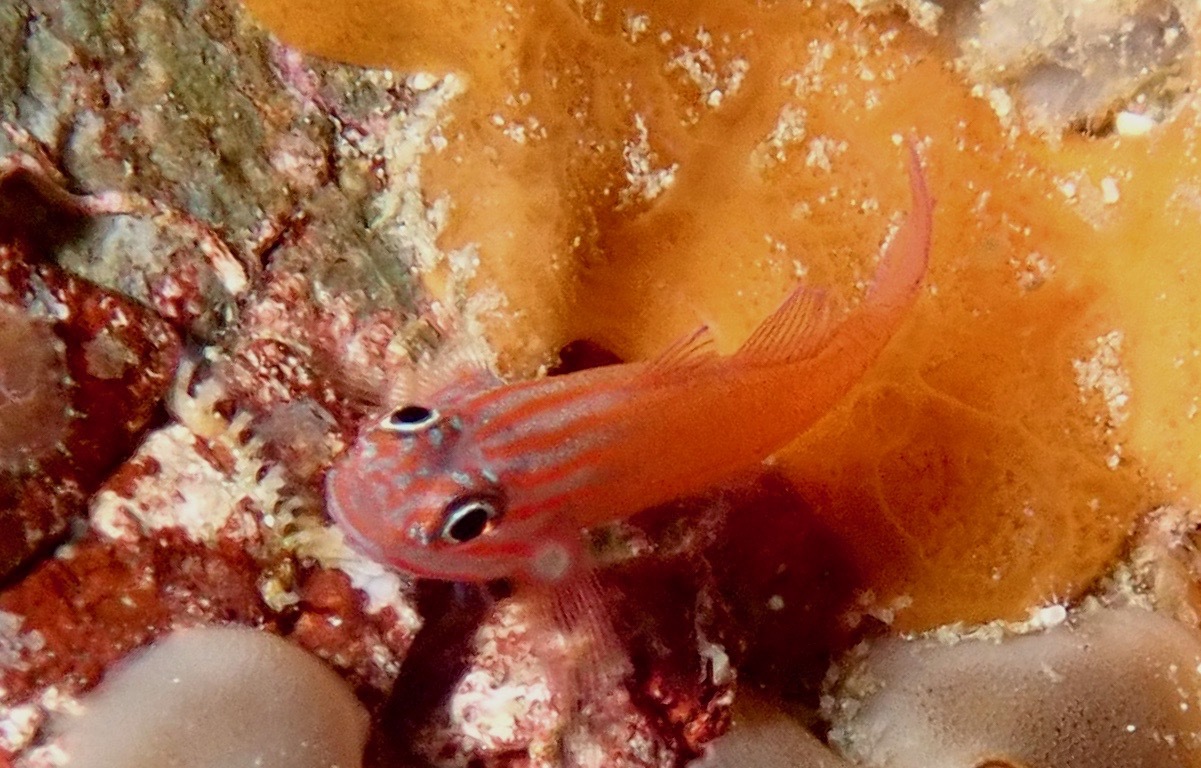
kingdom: Animalia
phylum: Chordata
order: Perciformes
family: Gobiidae
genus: Trimma
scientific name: Trimma striatum
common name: Red-lined pygmy-goby
